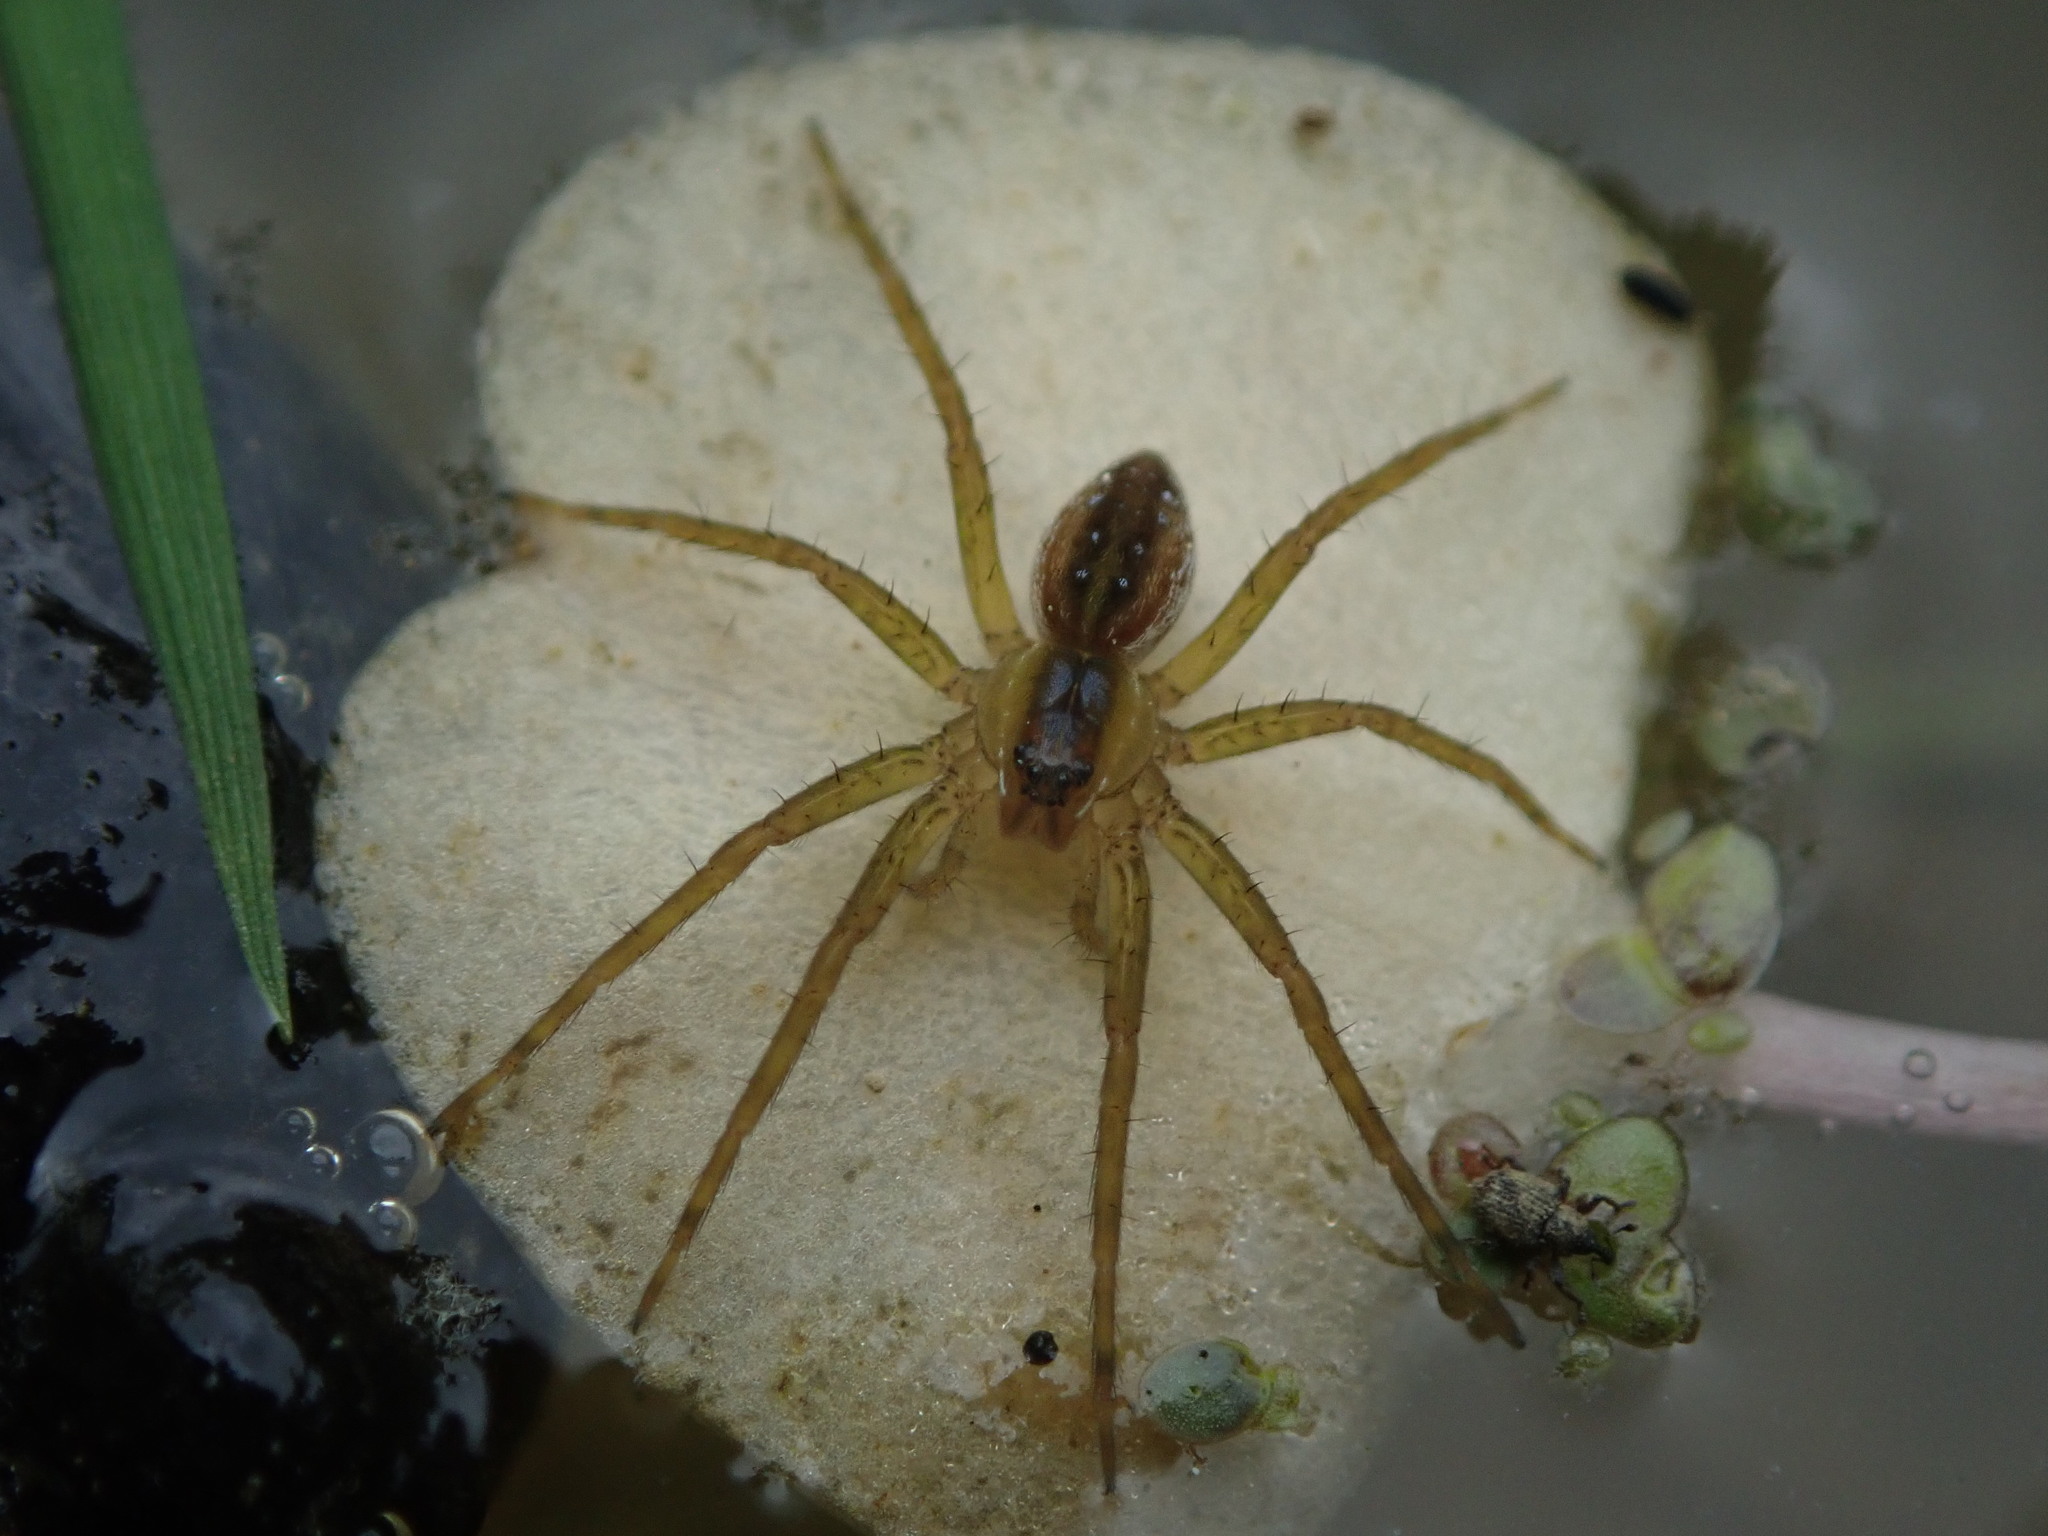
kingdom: Animalia
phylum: Arthropoda
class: Arachnida
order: Araneae
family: Pisauridae
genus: Dolomedes
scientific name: Dolomedes triton
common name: Six-spotted fishing spider
